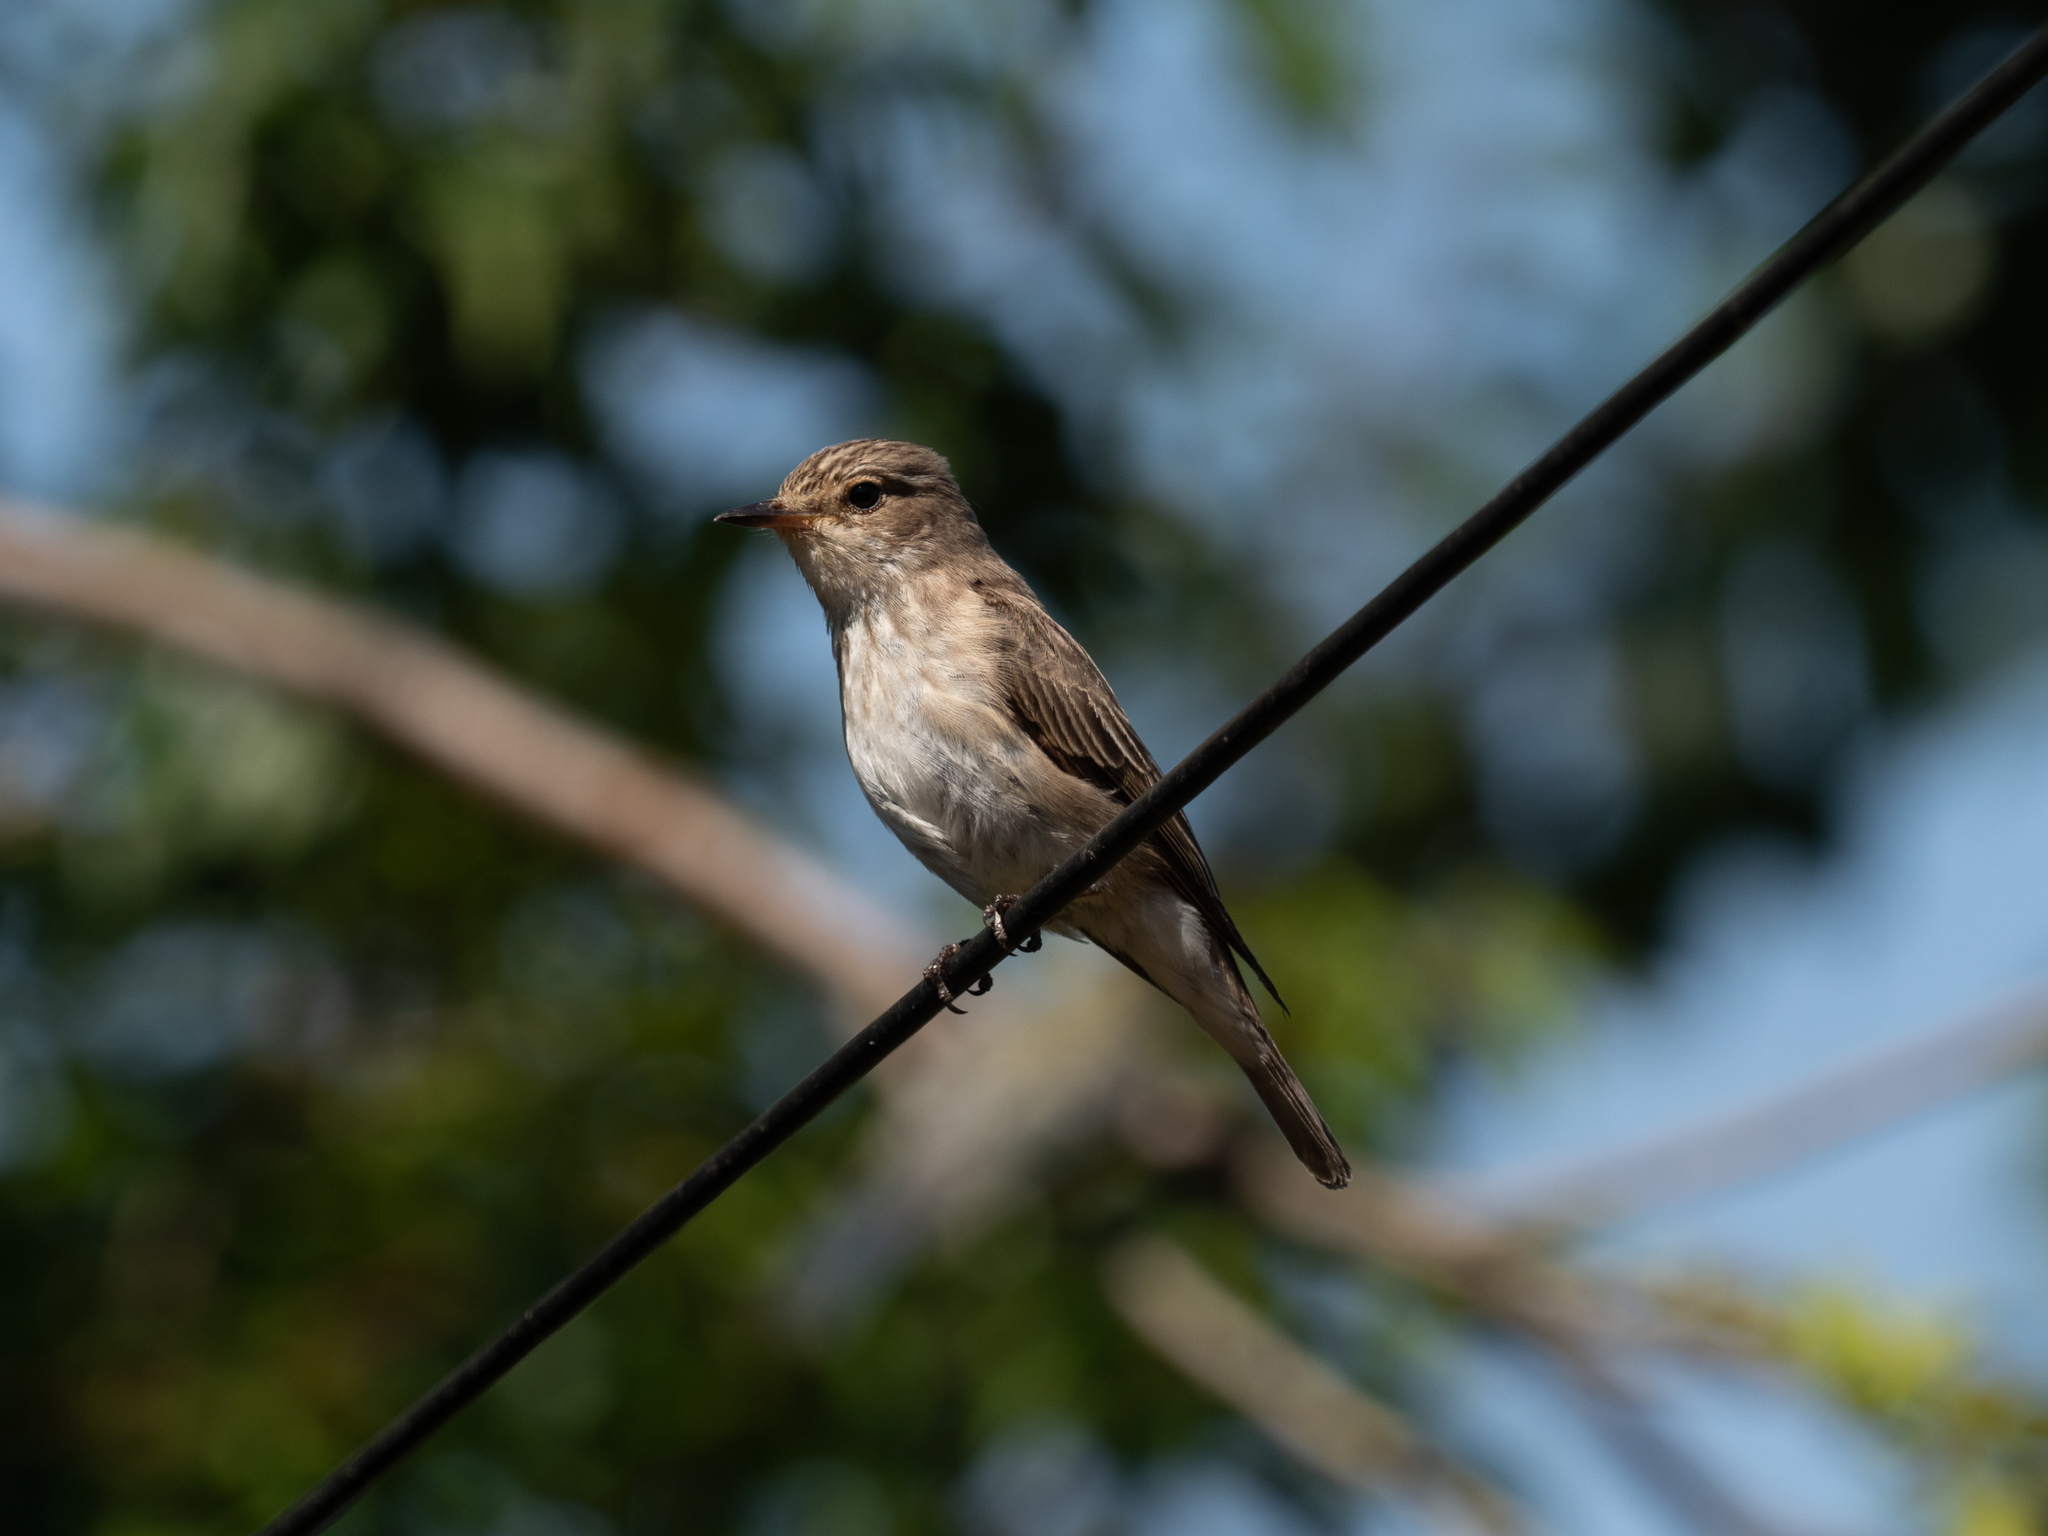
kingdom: Animalia
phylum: Chordata
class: Aves
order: Passeriformes
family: Muscicapidae
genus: Muscicapa
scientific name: Muscicapa striata
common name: Spotted flycatcher
